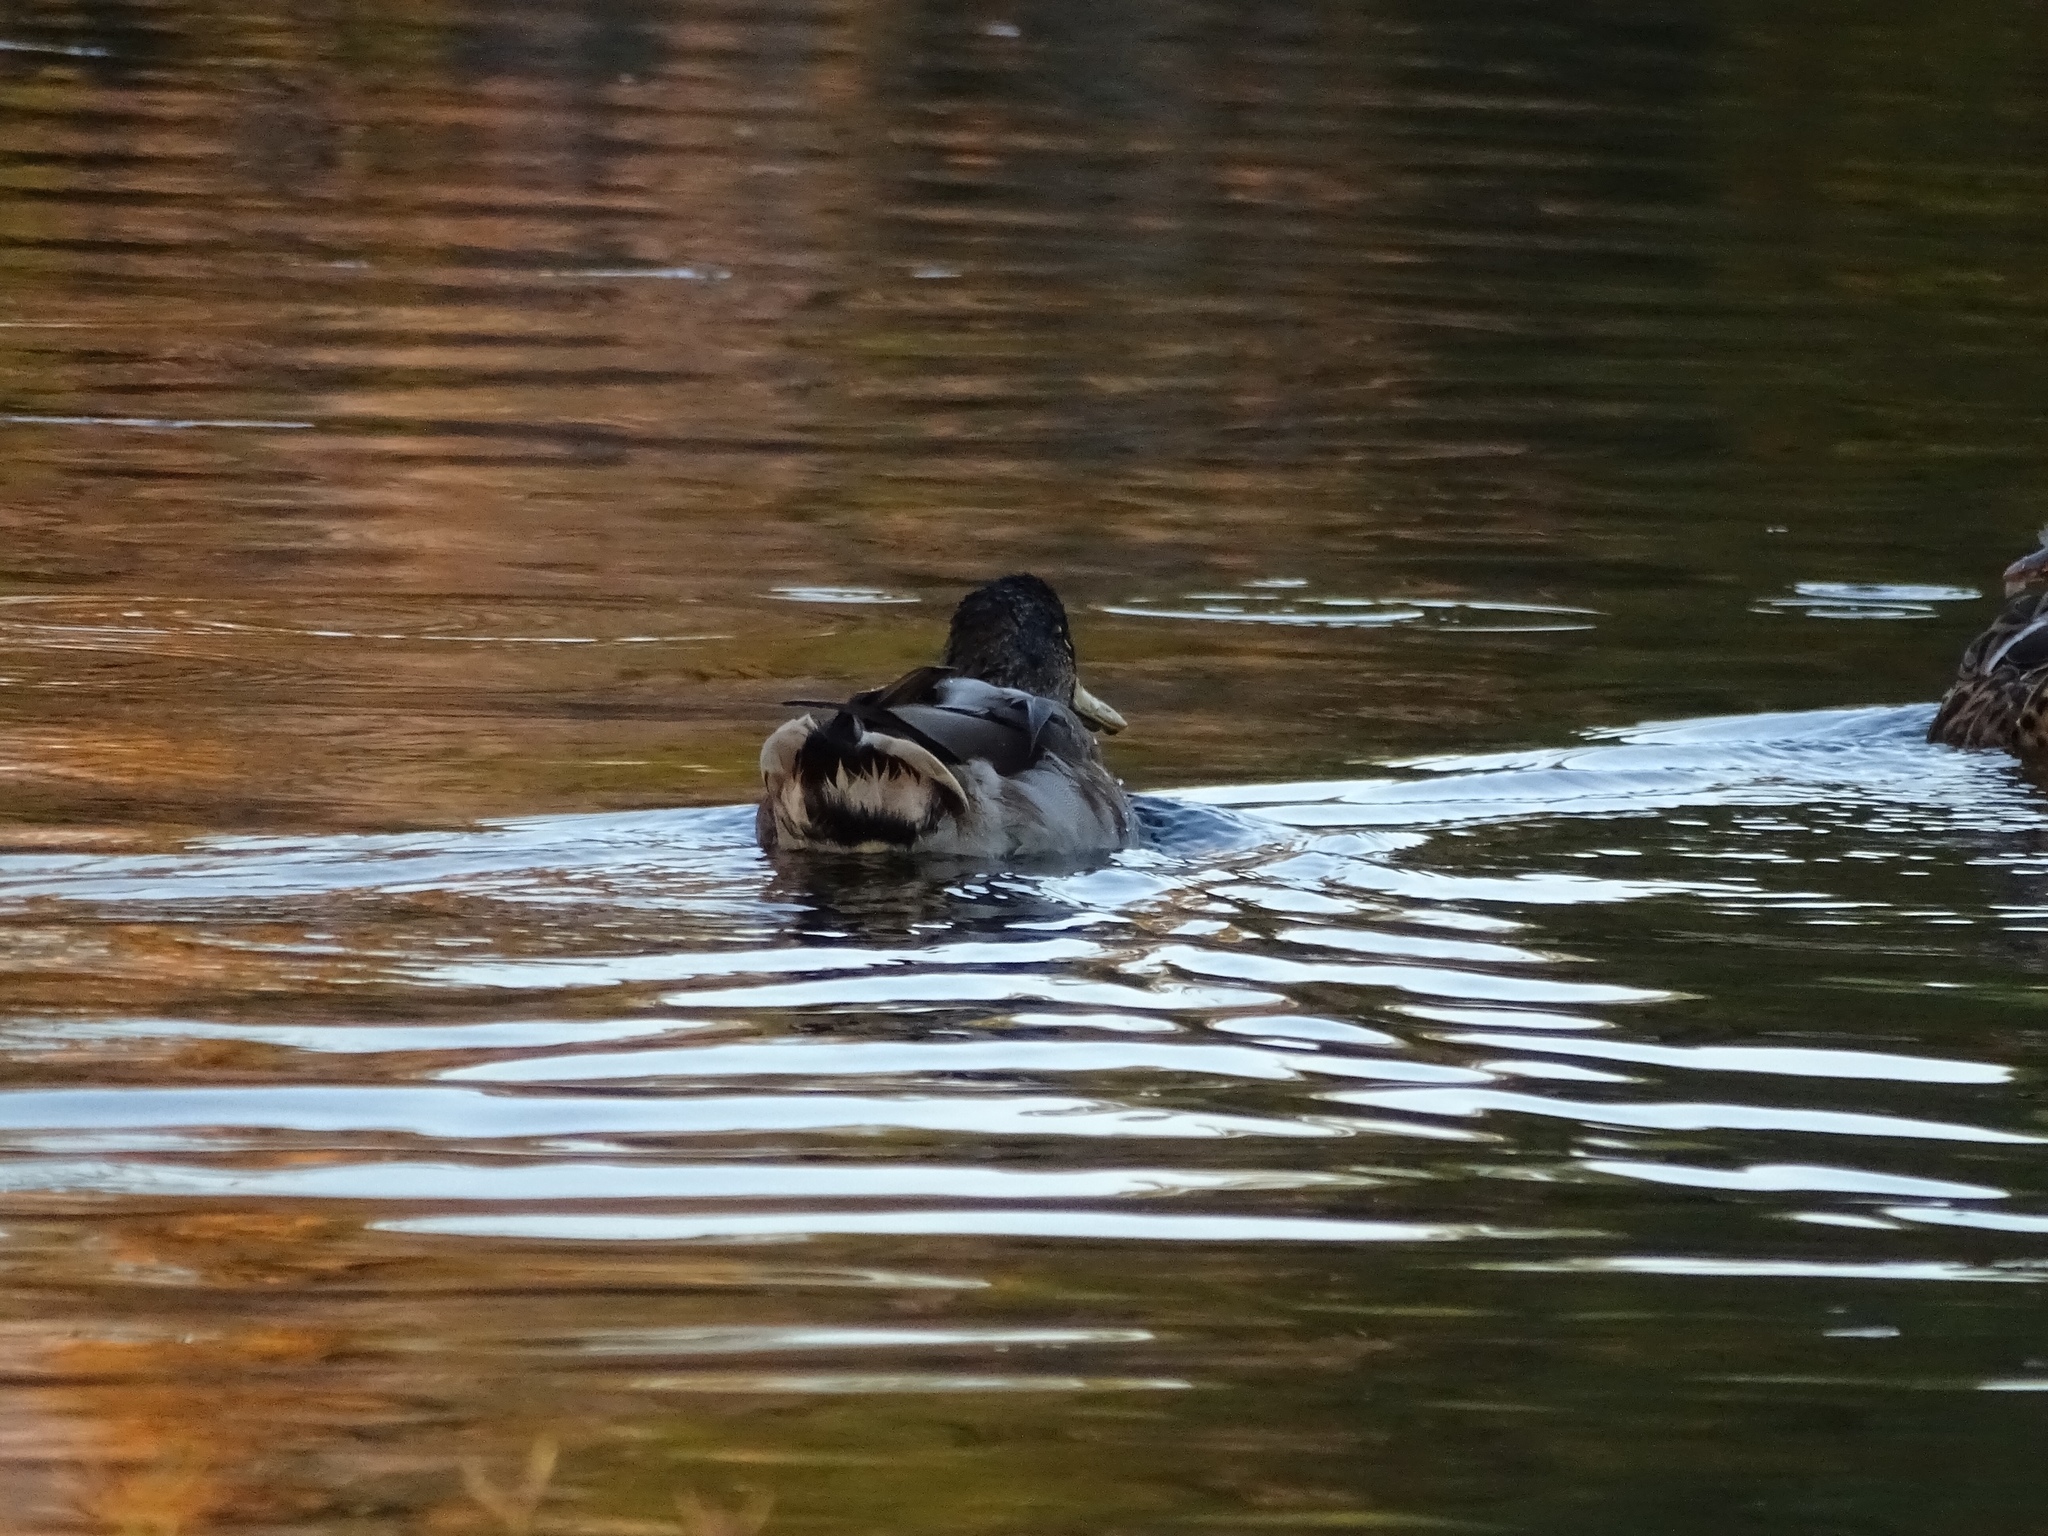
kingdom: Animalia
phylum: Chordata
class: Aves
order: Anseriformes
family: Anatidae
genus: Anas
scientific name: Anas platyrhynchos
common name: Mallard
